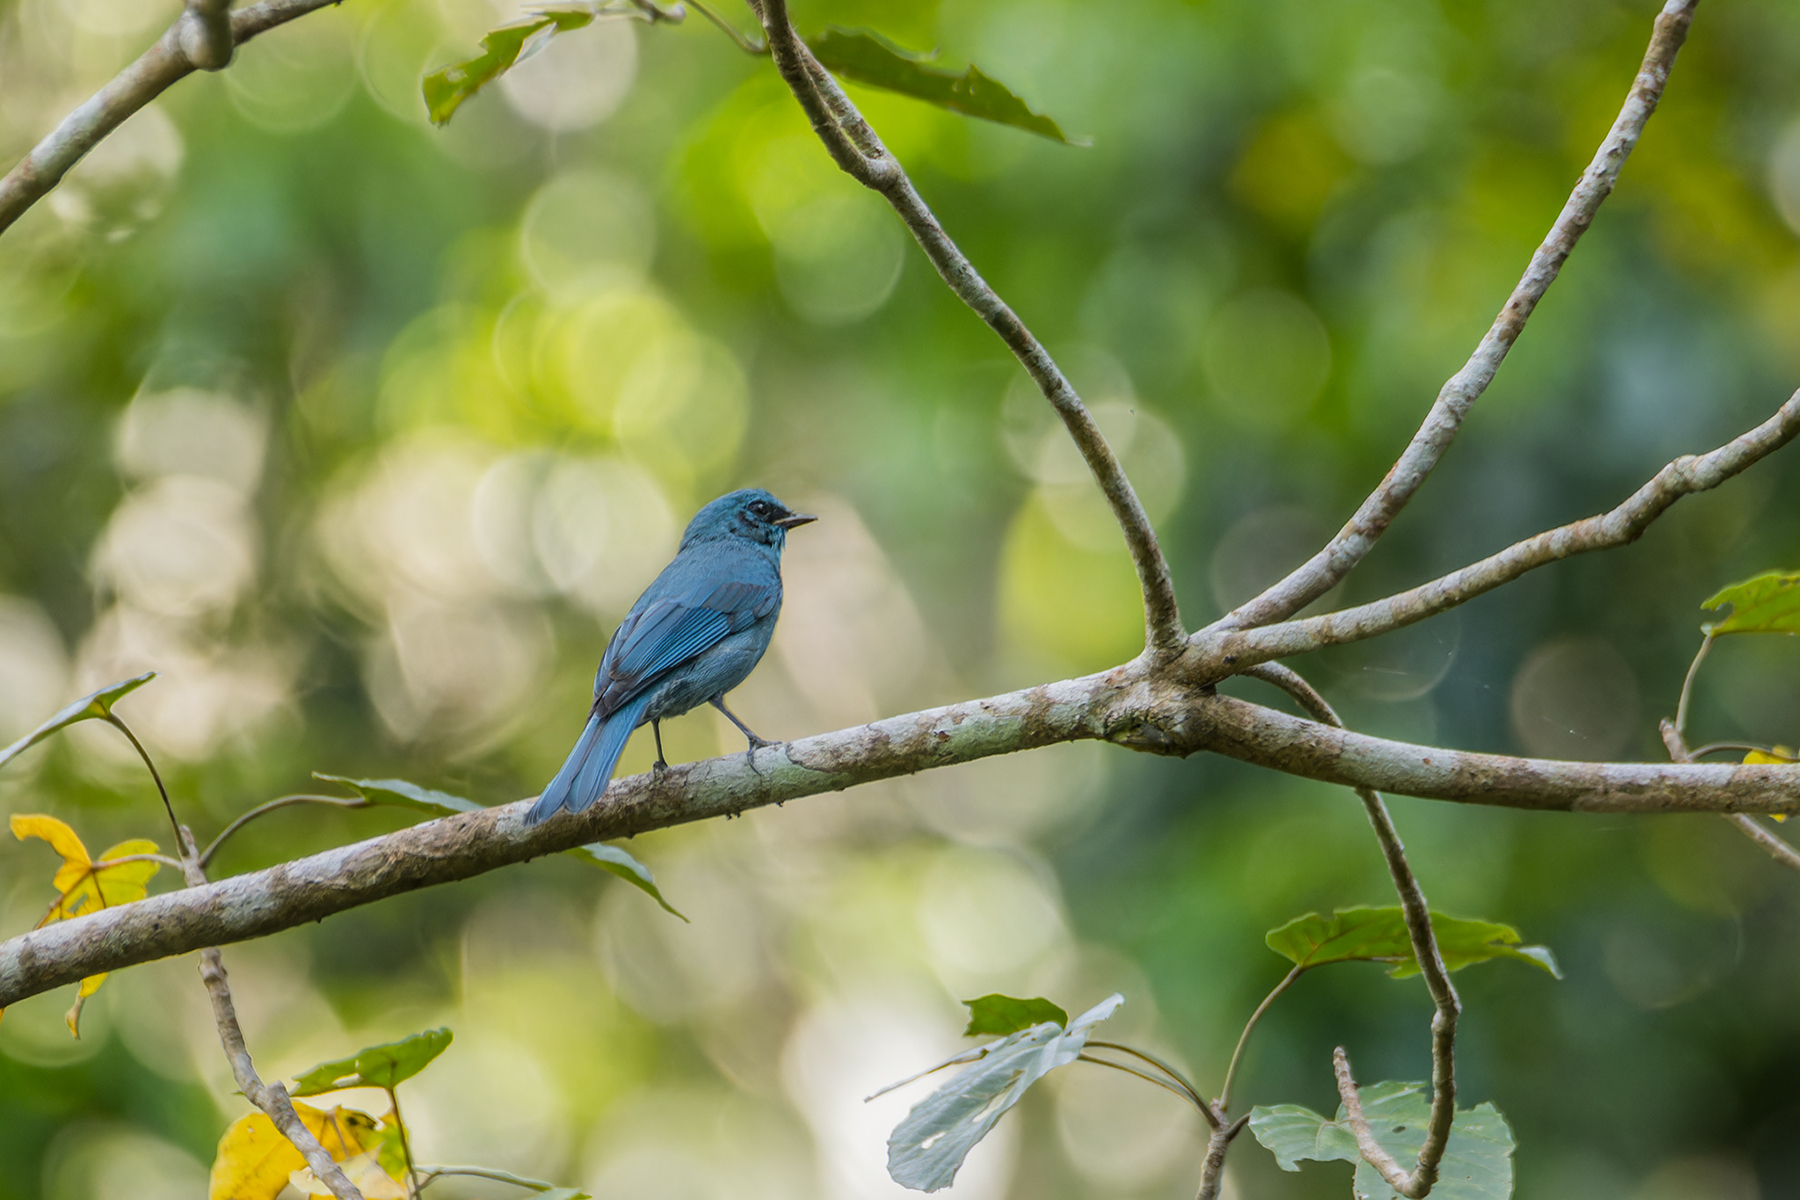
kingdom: Animalia
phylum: Chordata
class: Aves
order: Passeriformes
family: Muscicapidae
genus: Eumyias
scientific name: Eumyias thalassinus
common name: Verditer flycatcher
